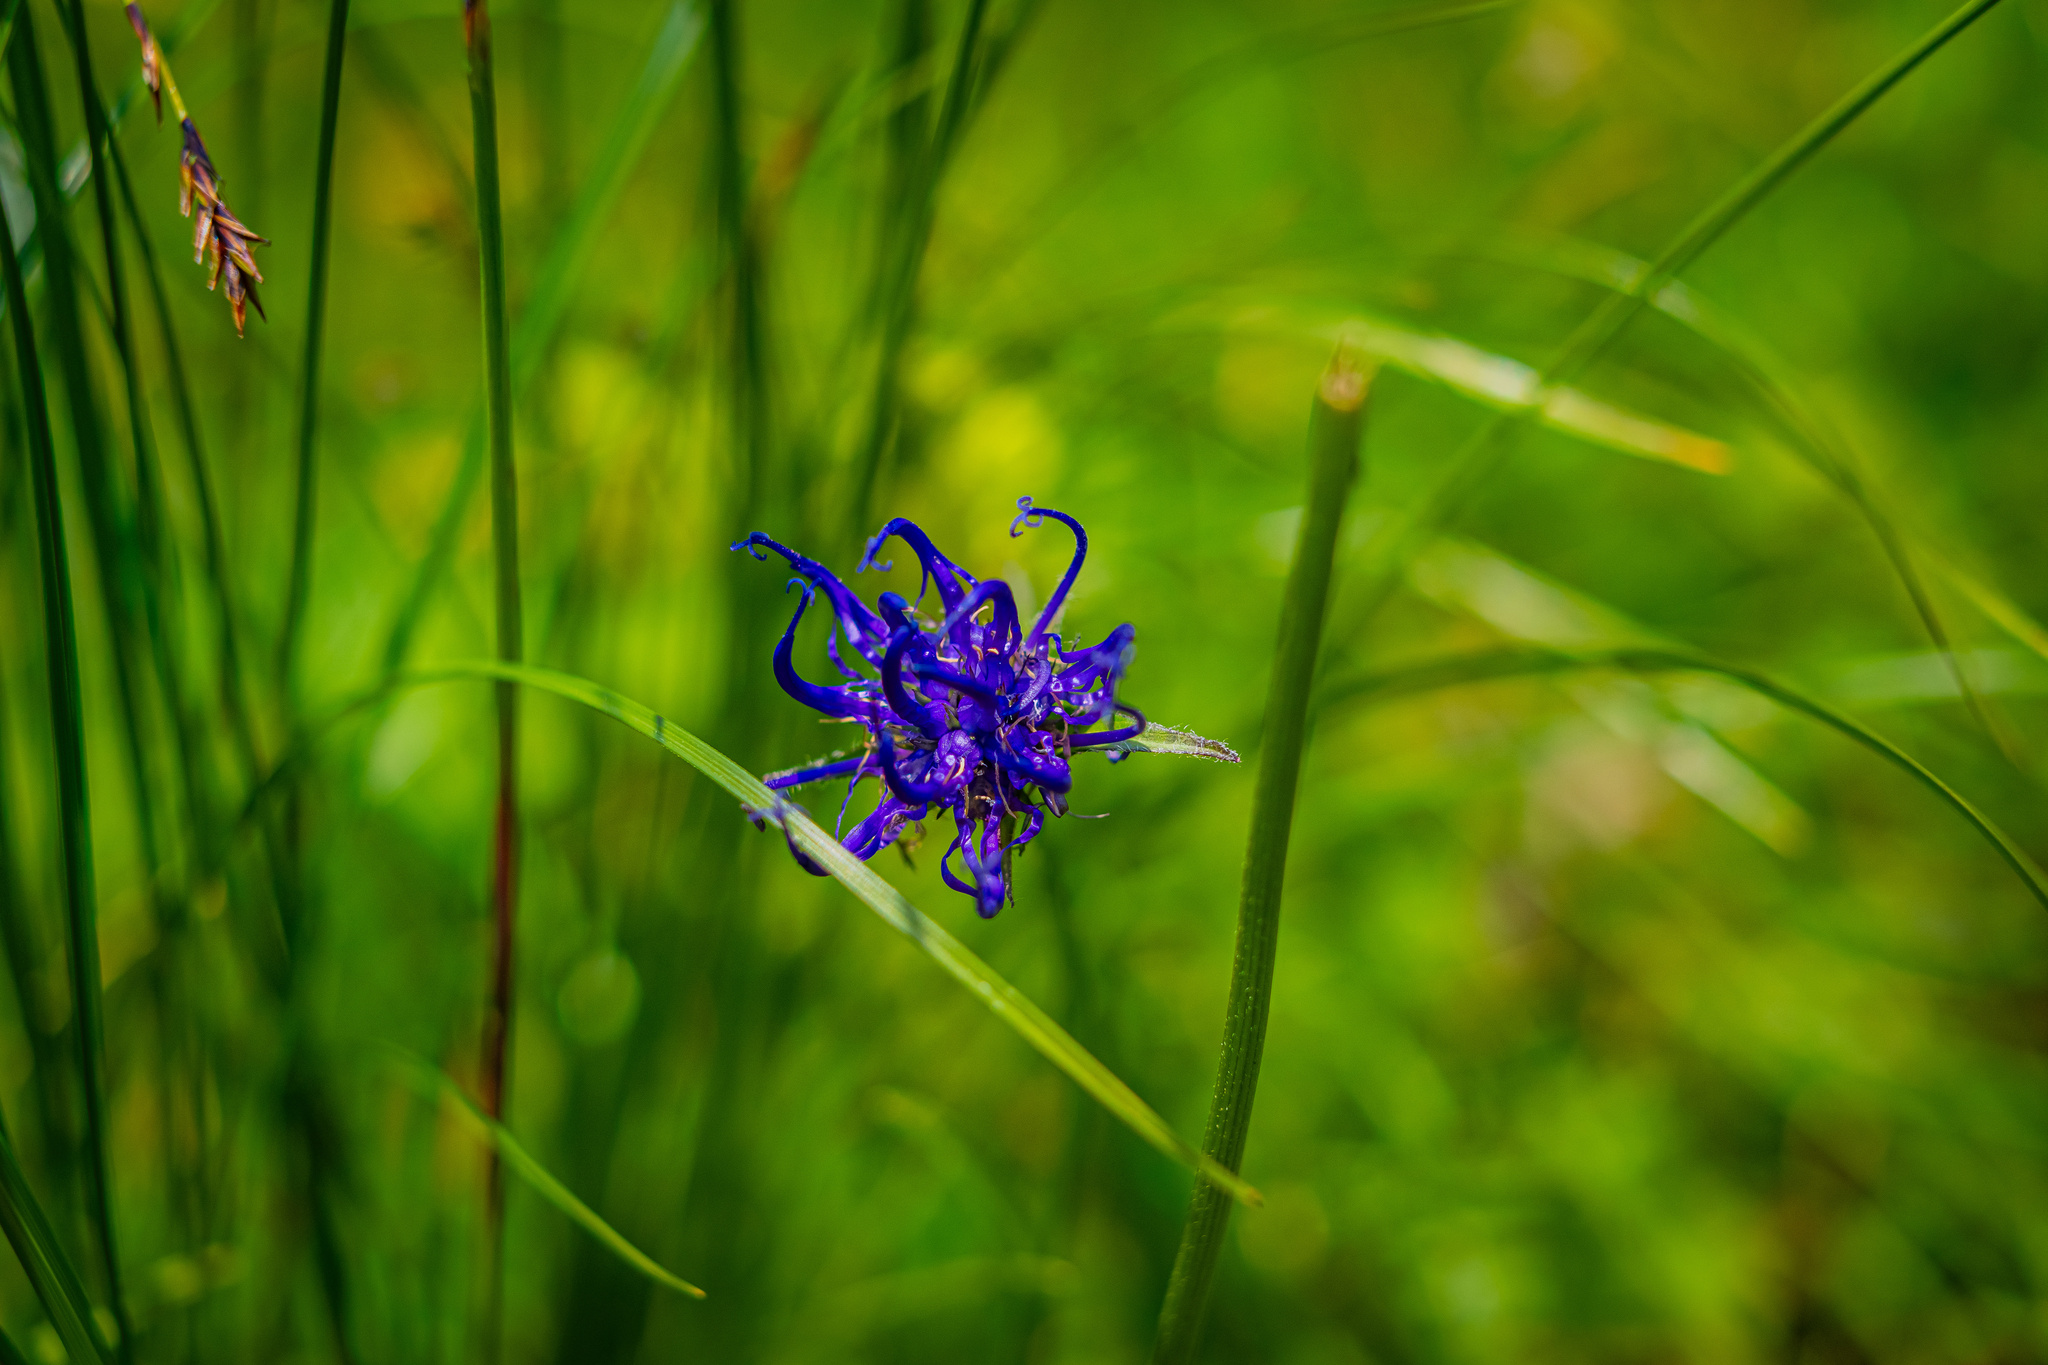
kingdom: Plantae
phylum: Tracheophyta
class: Magnoliopsida
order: Asterales
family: Campanulaceae
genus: Phyteuma
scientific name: Phyteuma orbiculare
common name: Round-headed rampion
